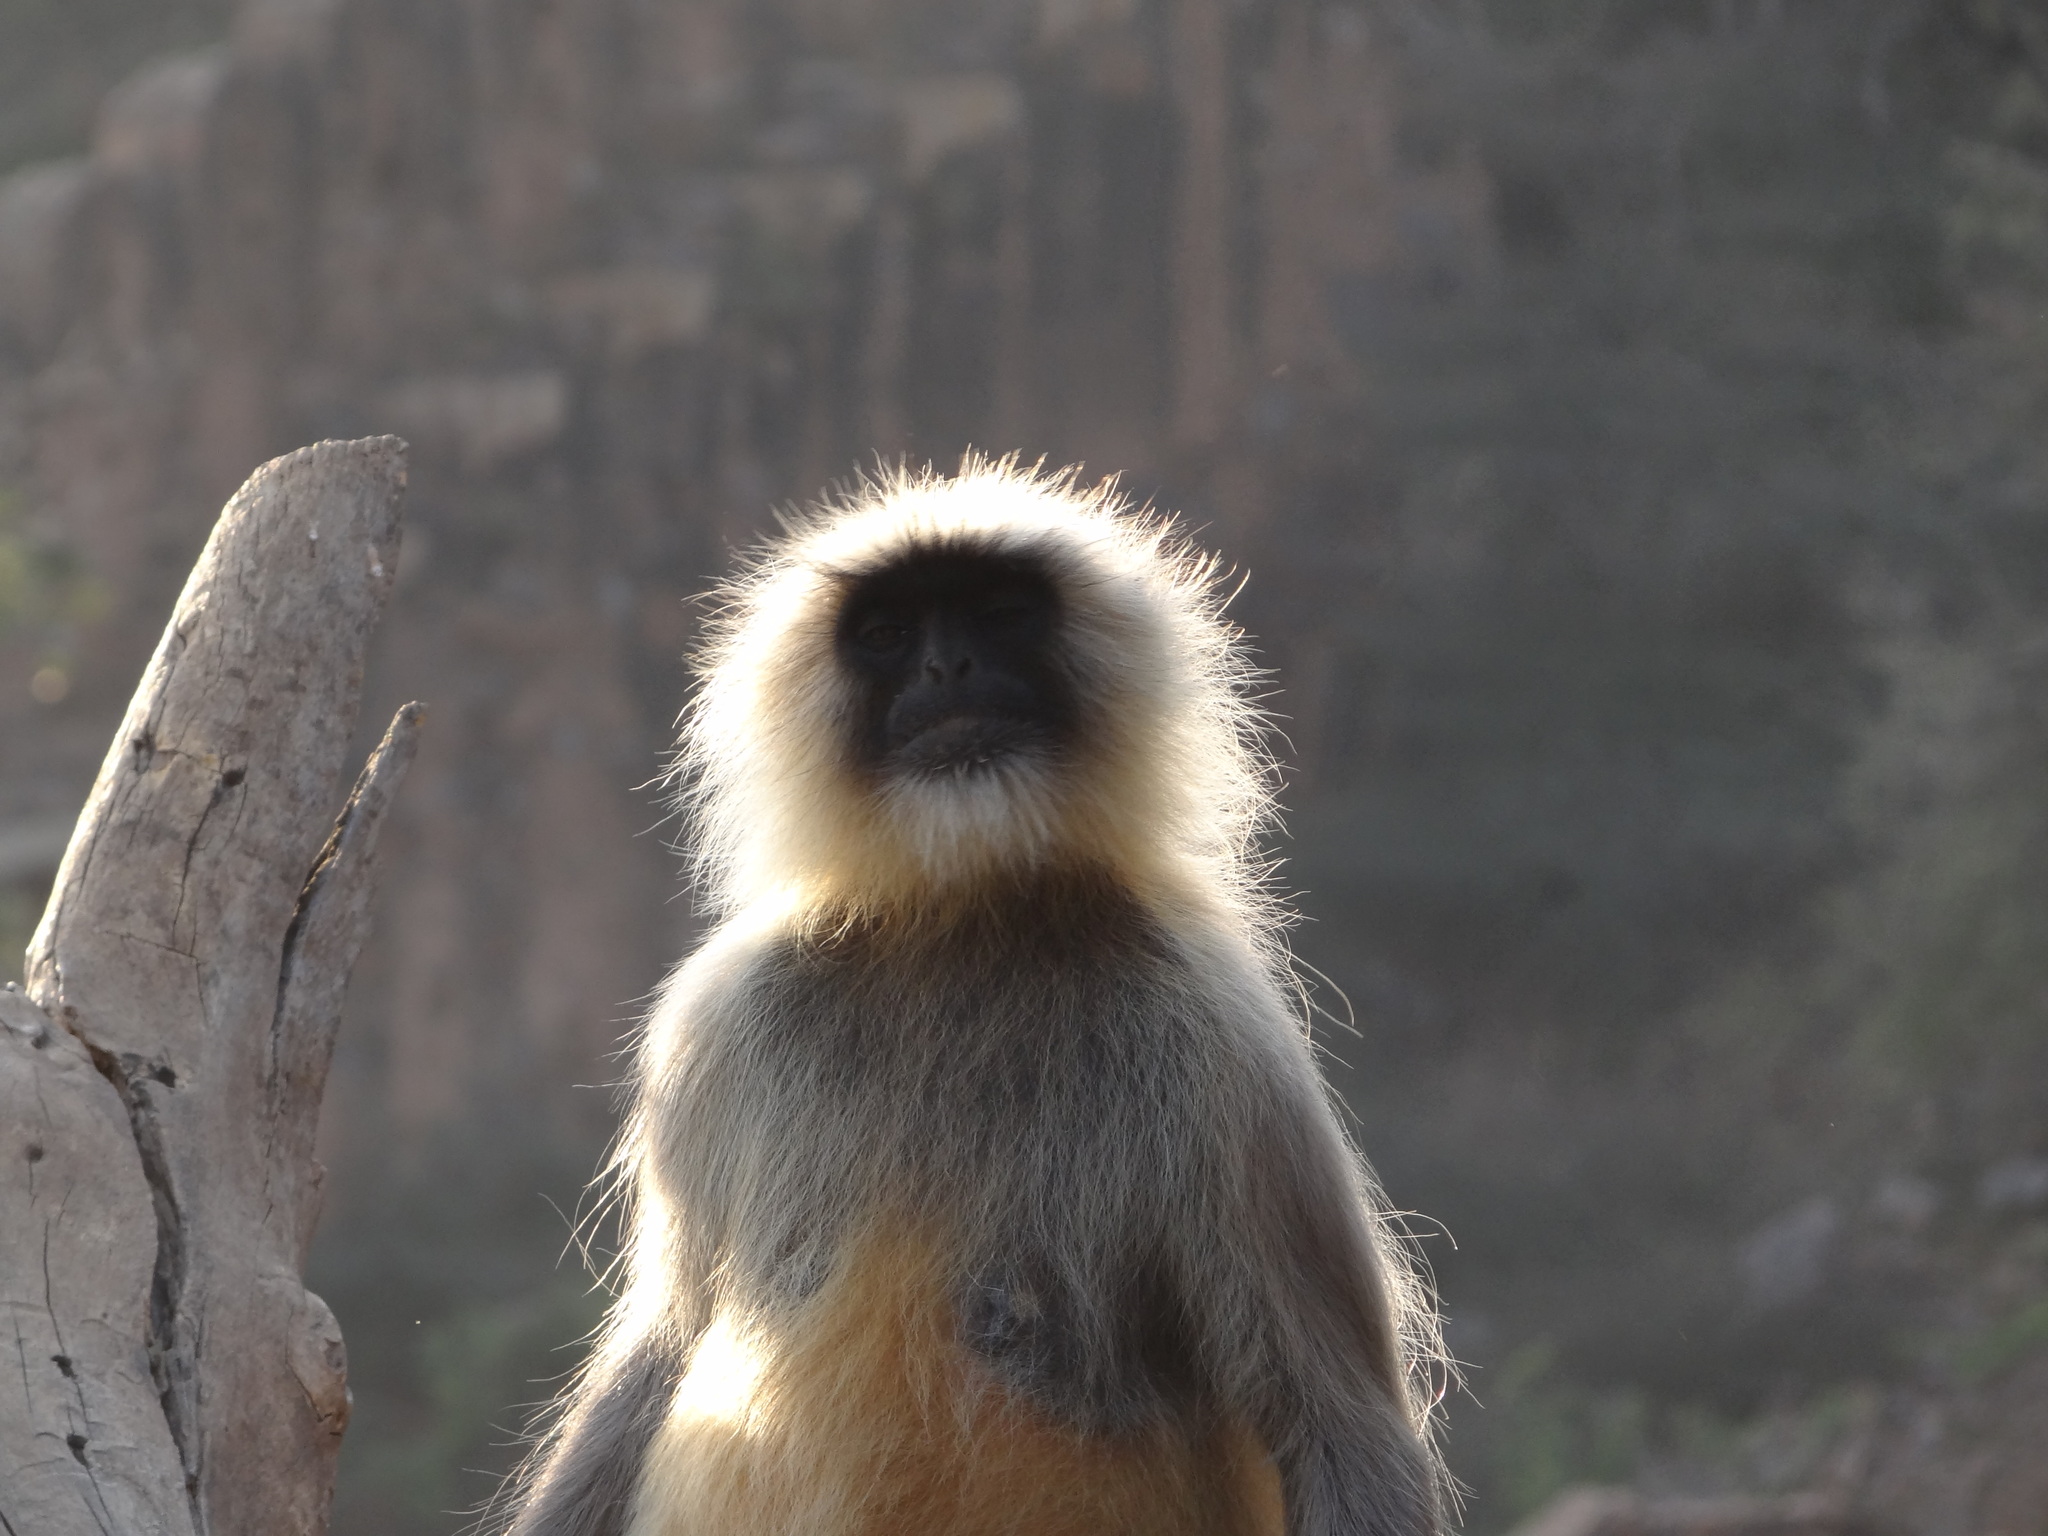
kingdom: Animalia
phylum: Chordata
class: Mammalia
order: Primates
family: Cercopithecidae
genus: Semnopithecus
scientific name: Semnopithecus entellus
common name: Northern plains gray langur
